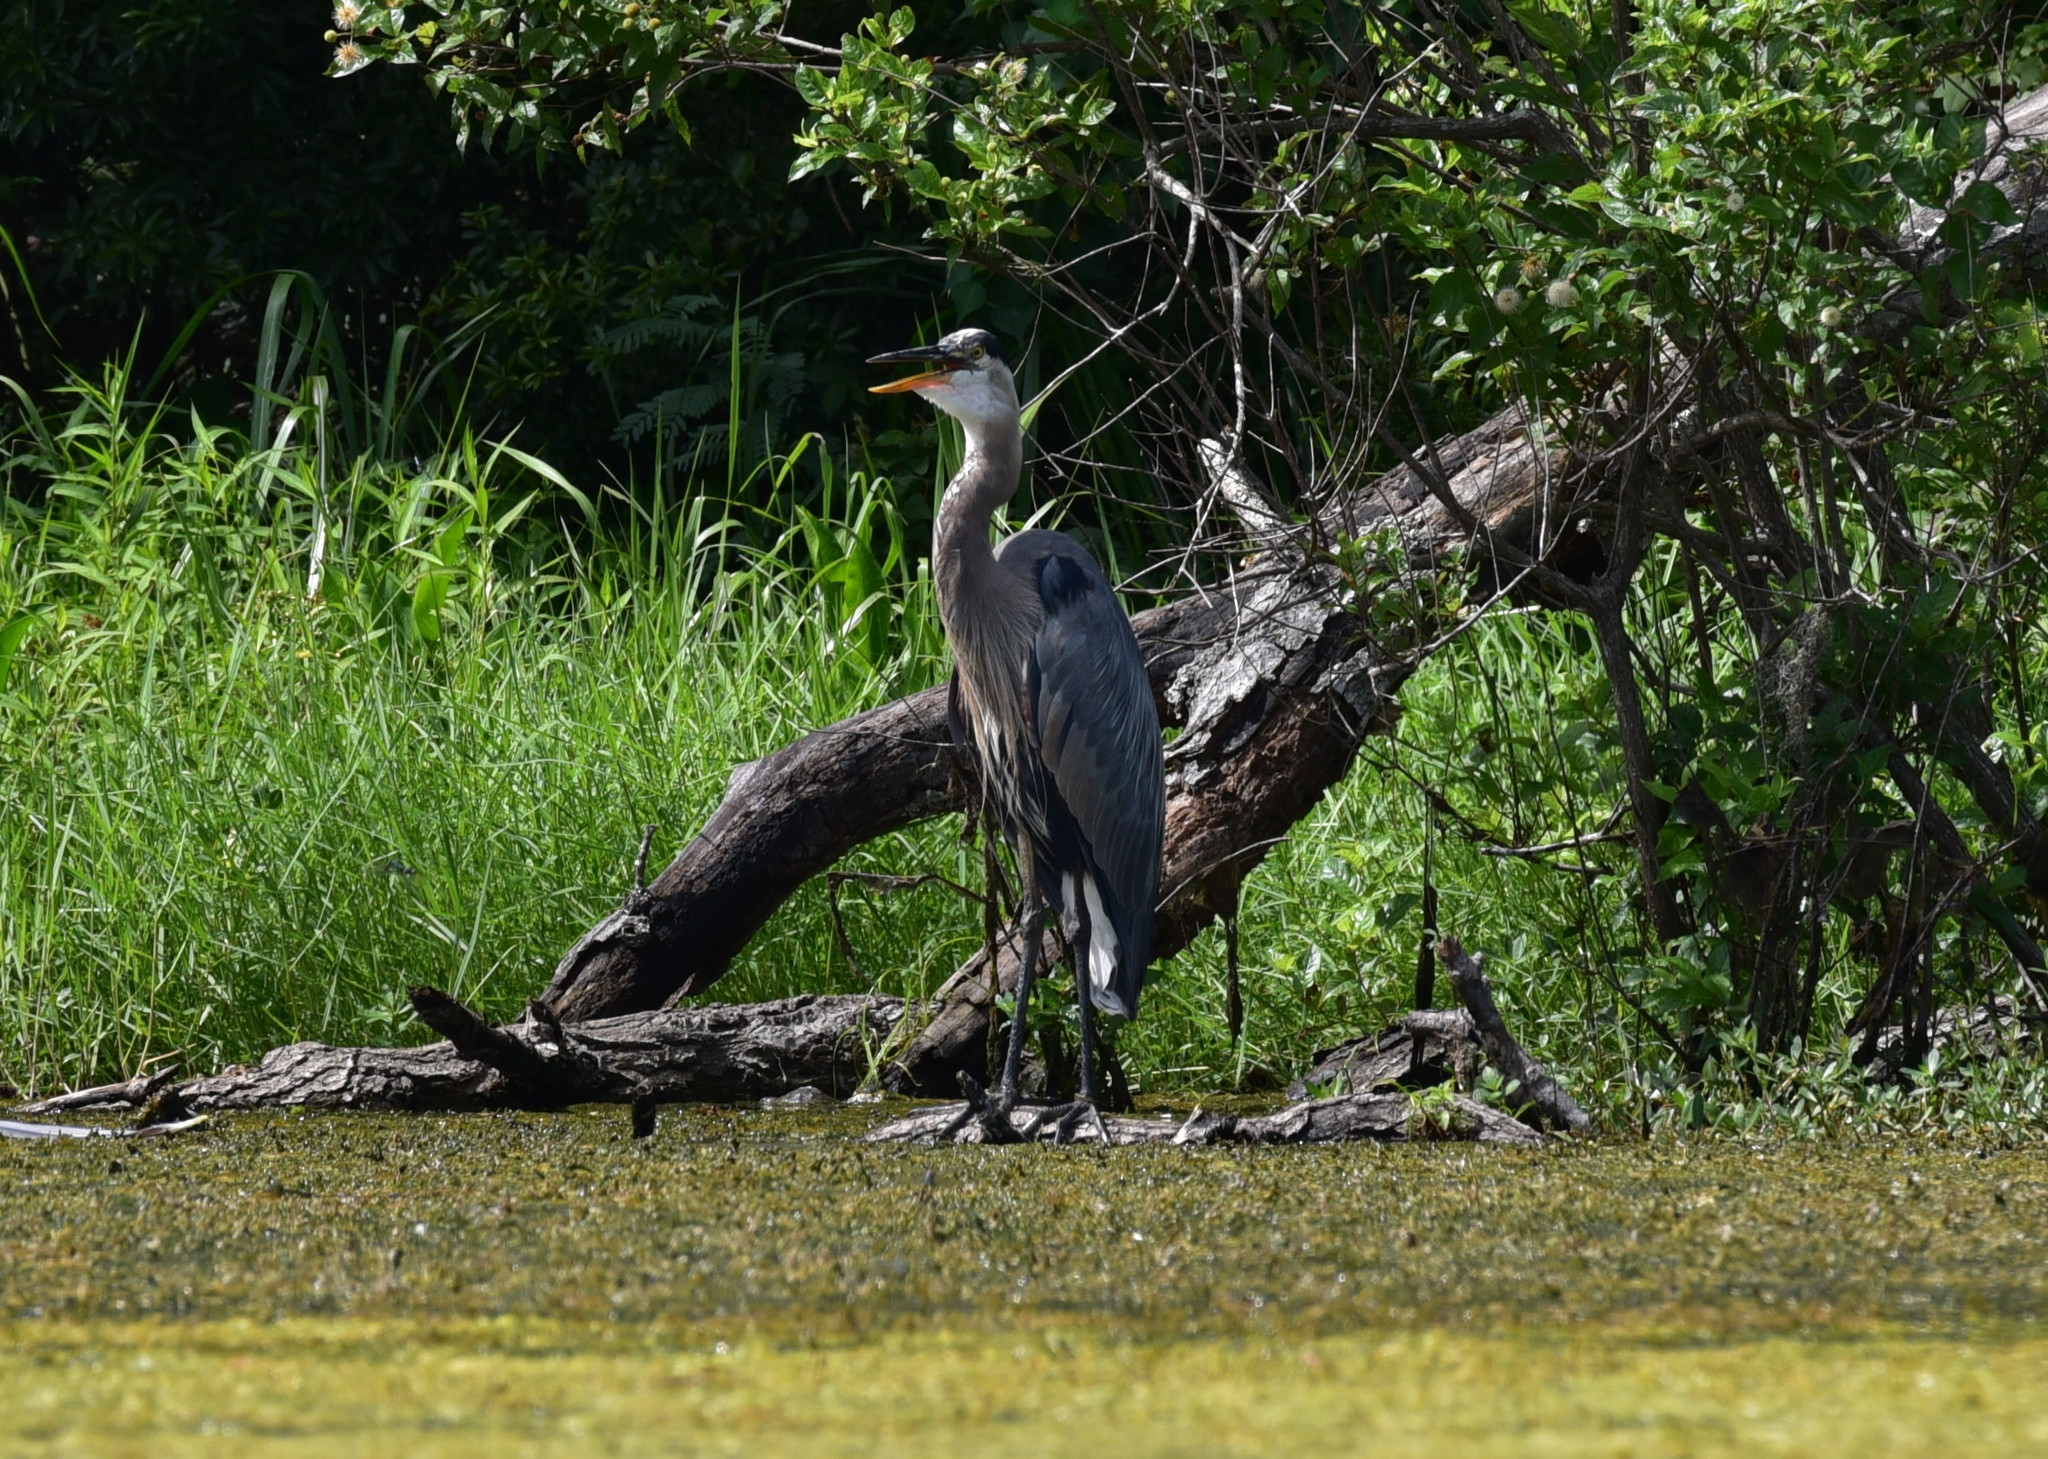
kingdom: Animalia
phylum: Chordata
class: Aves
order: Pelecaniformes
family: Ardeidae
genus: Ardea
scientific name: Ardea herodias
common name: Great blue heron
